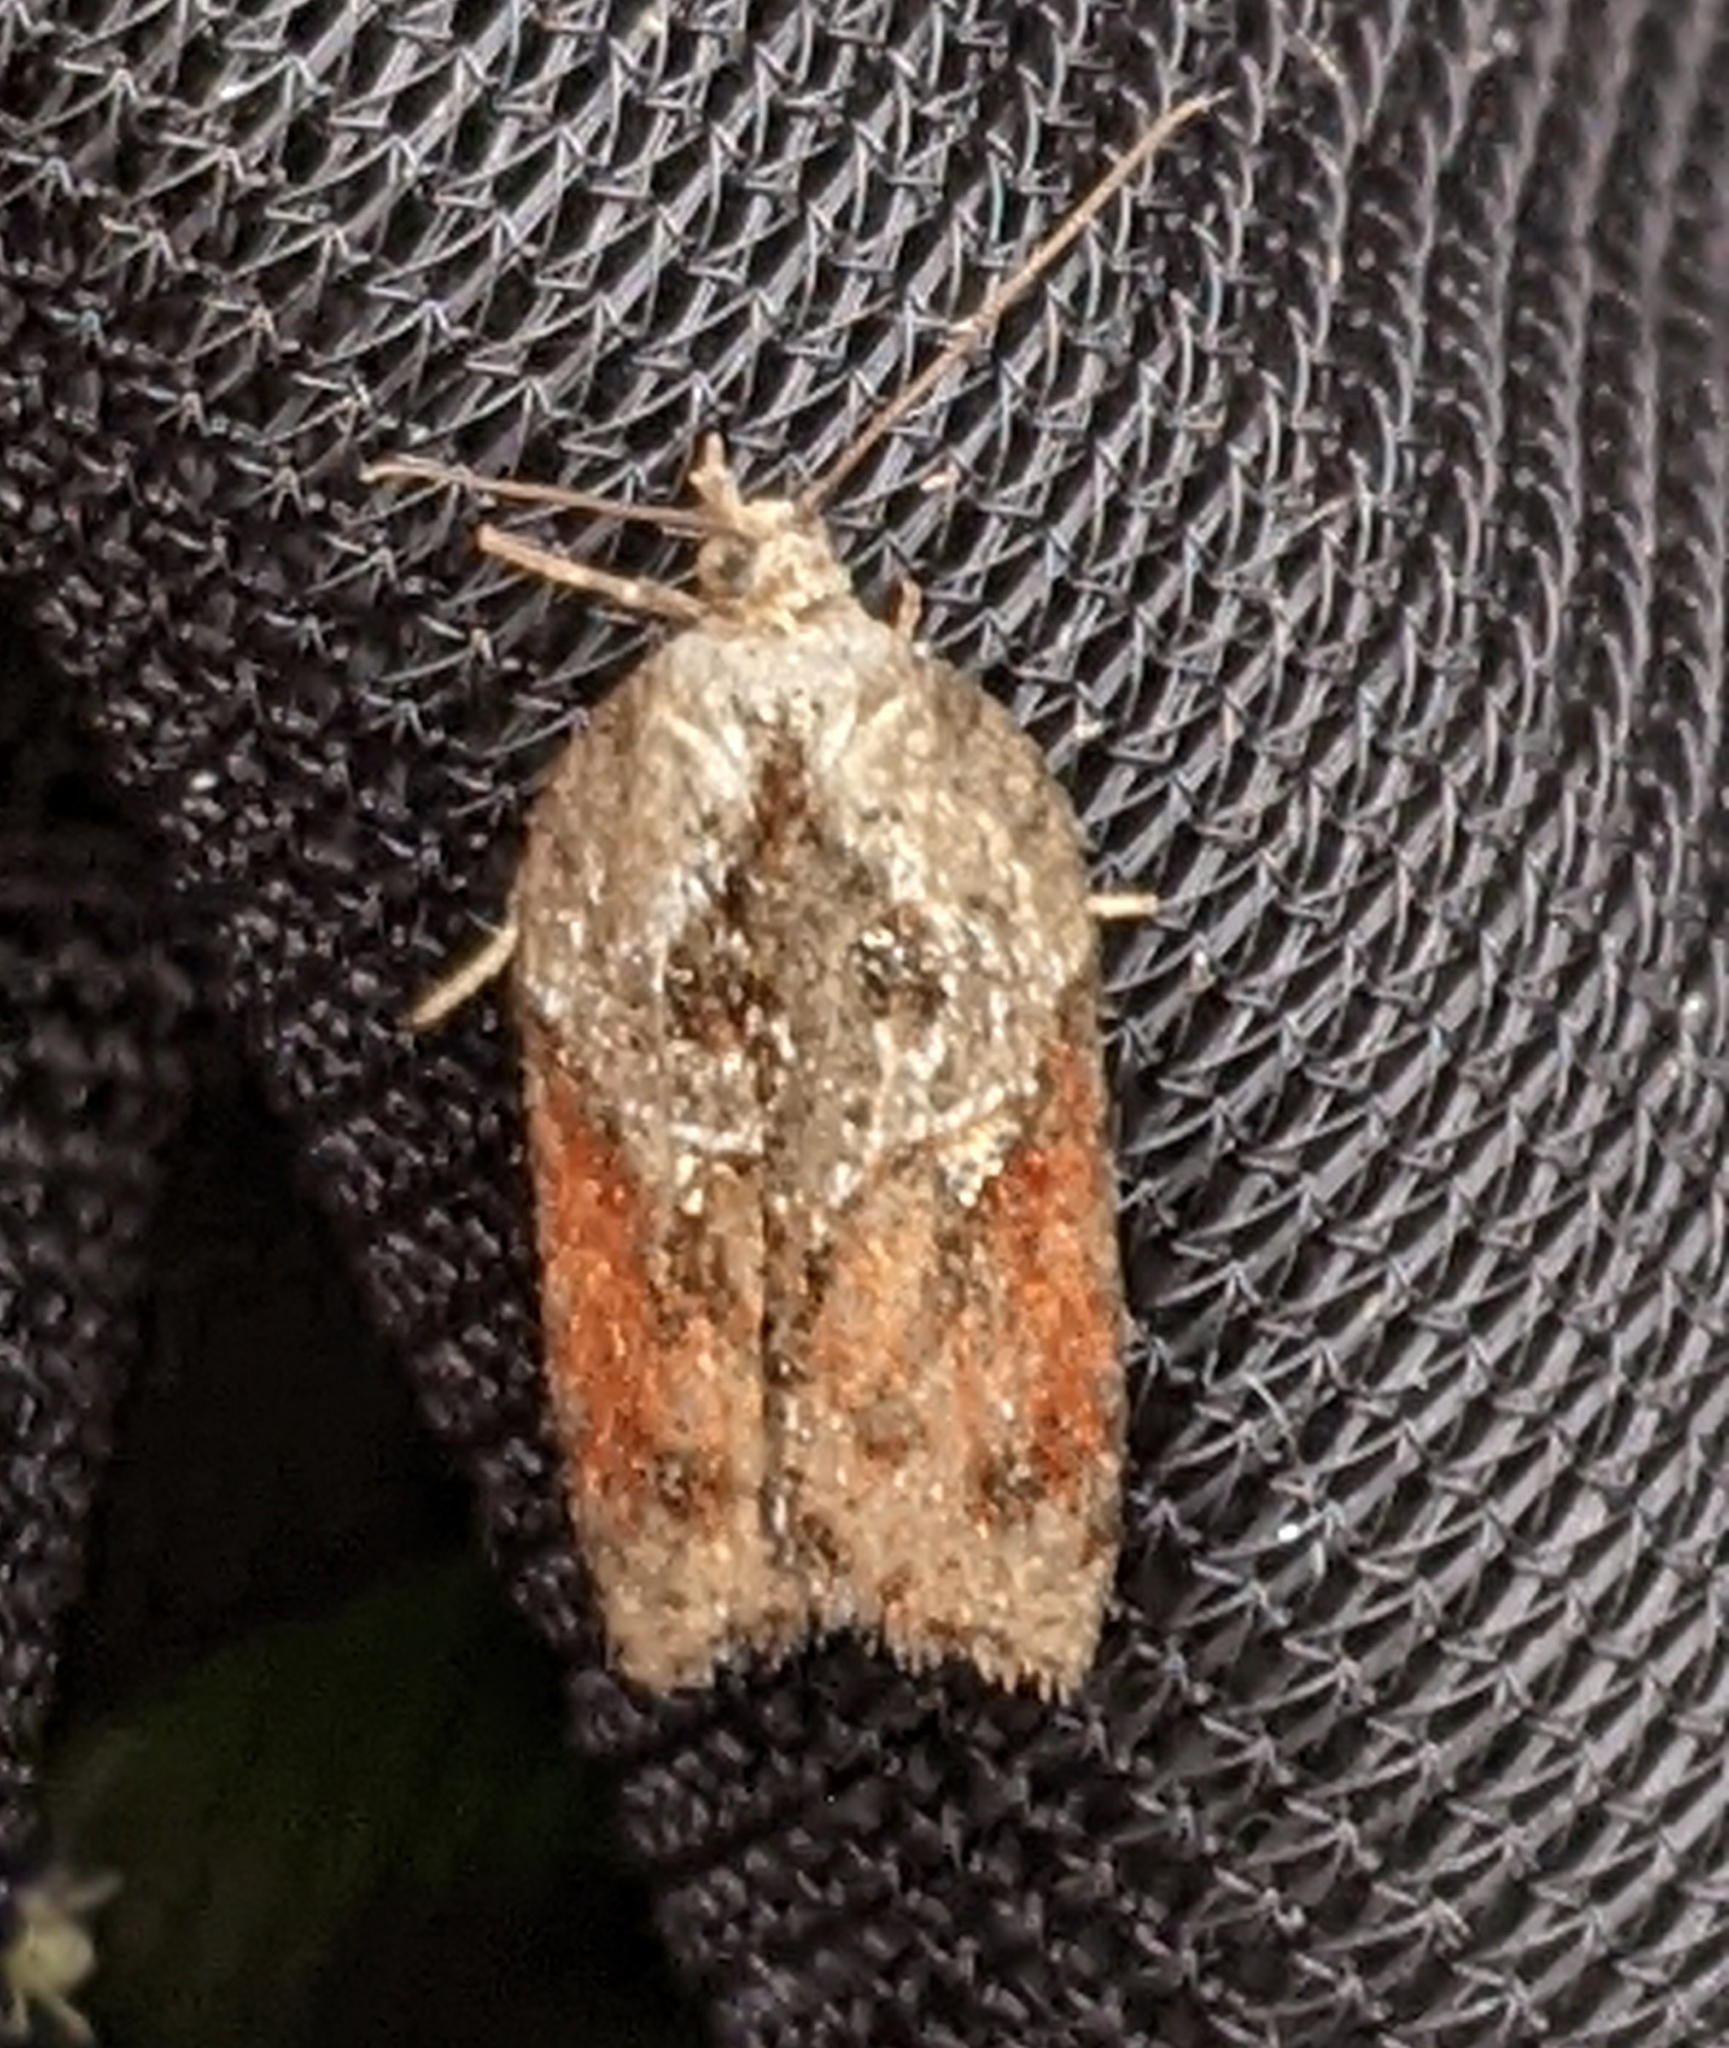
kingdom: Animalia
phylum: Arthropoda
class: Insecta
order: Lepidoptera
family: Tortricidae
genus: Acleris
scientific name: Acleris robinsoniana
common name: Robinson's acleris moth
